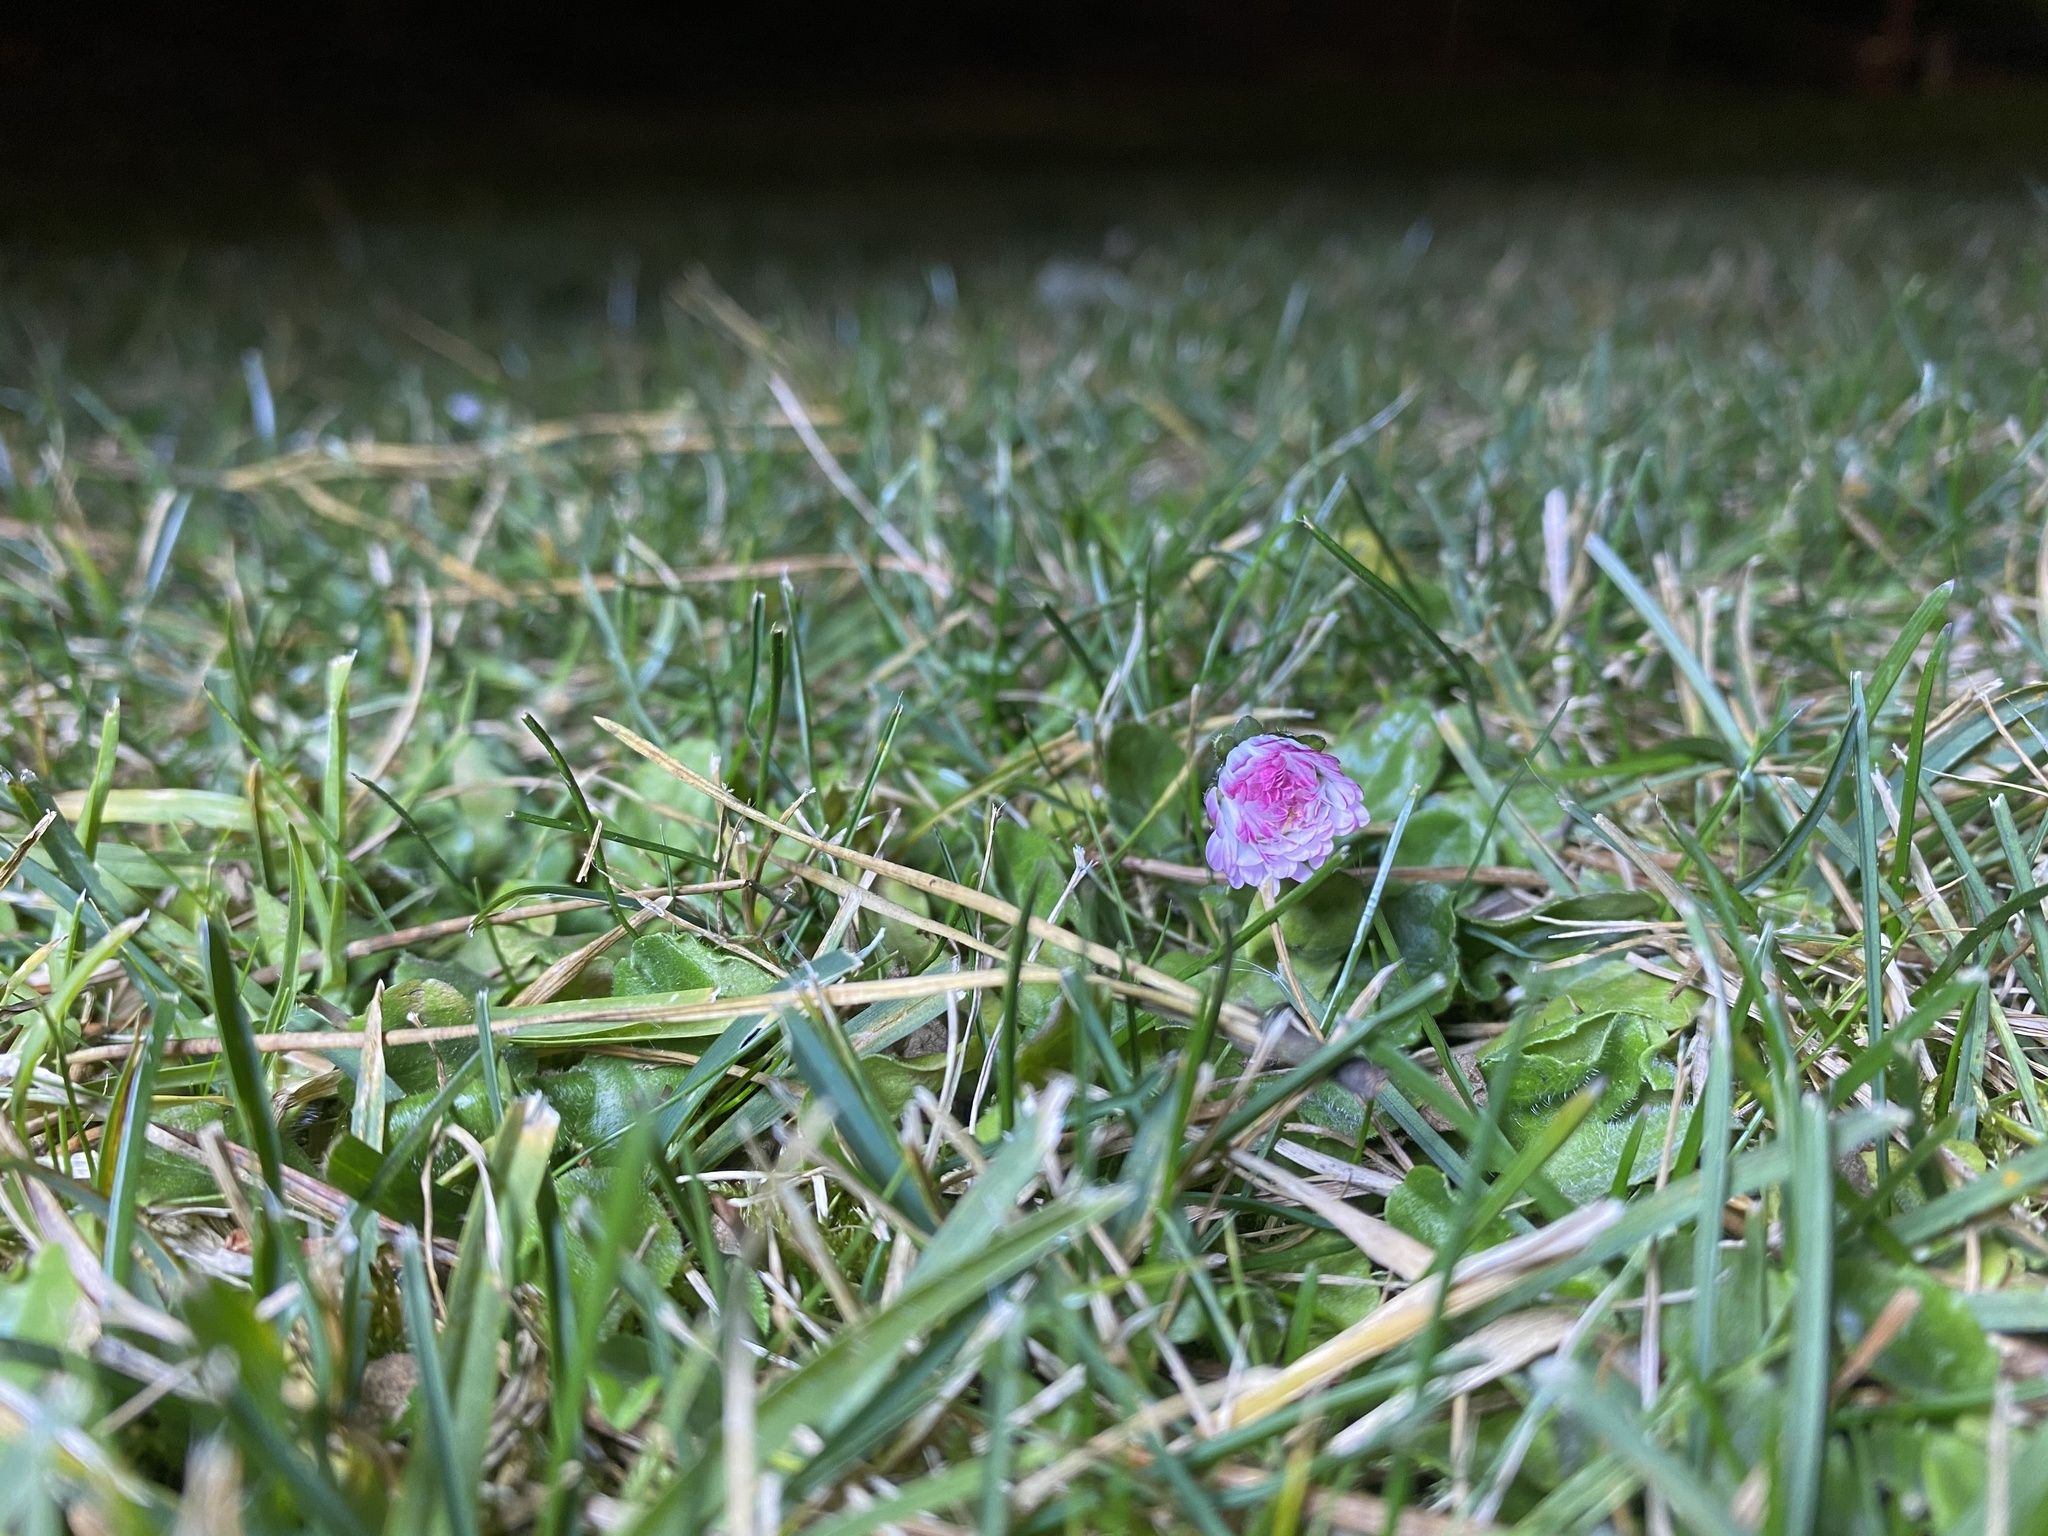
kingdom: Plantae
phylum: Tracheophyta
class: Magnoliopsida
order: Asterales
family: Asteraceae
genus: Bellis
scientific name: Bellis perennis
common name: Lawndaisy
